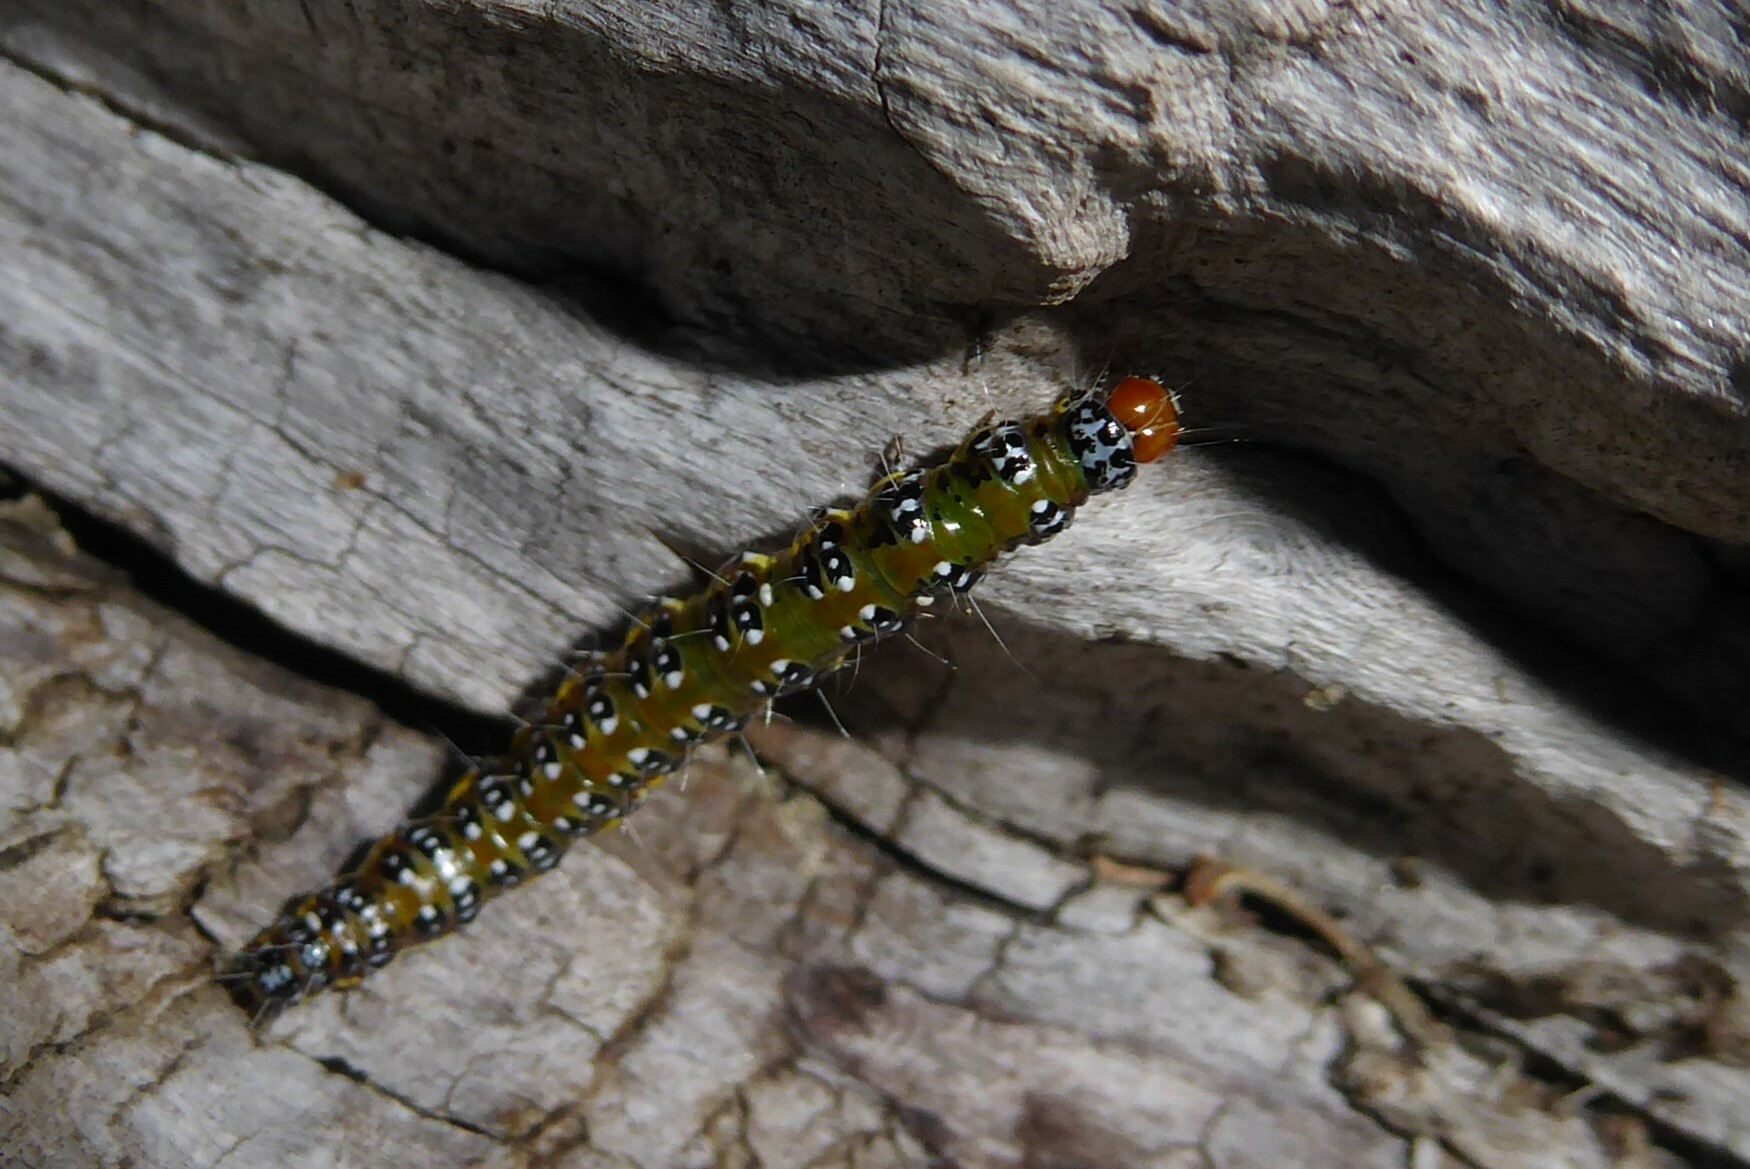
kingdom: Animalia
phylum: Arthropoda
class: Insecta
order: Lepidoptera
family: Crambidae
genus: Uresiphita
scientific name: Uresiphita
